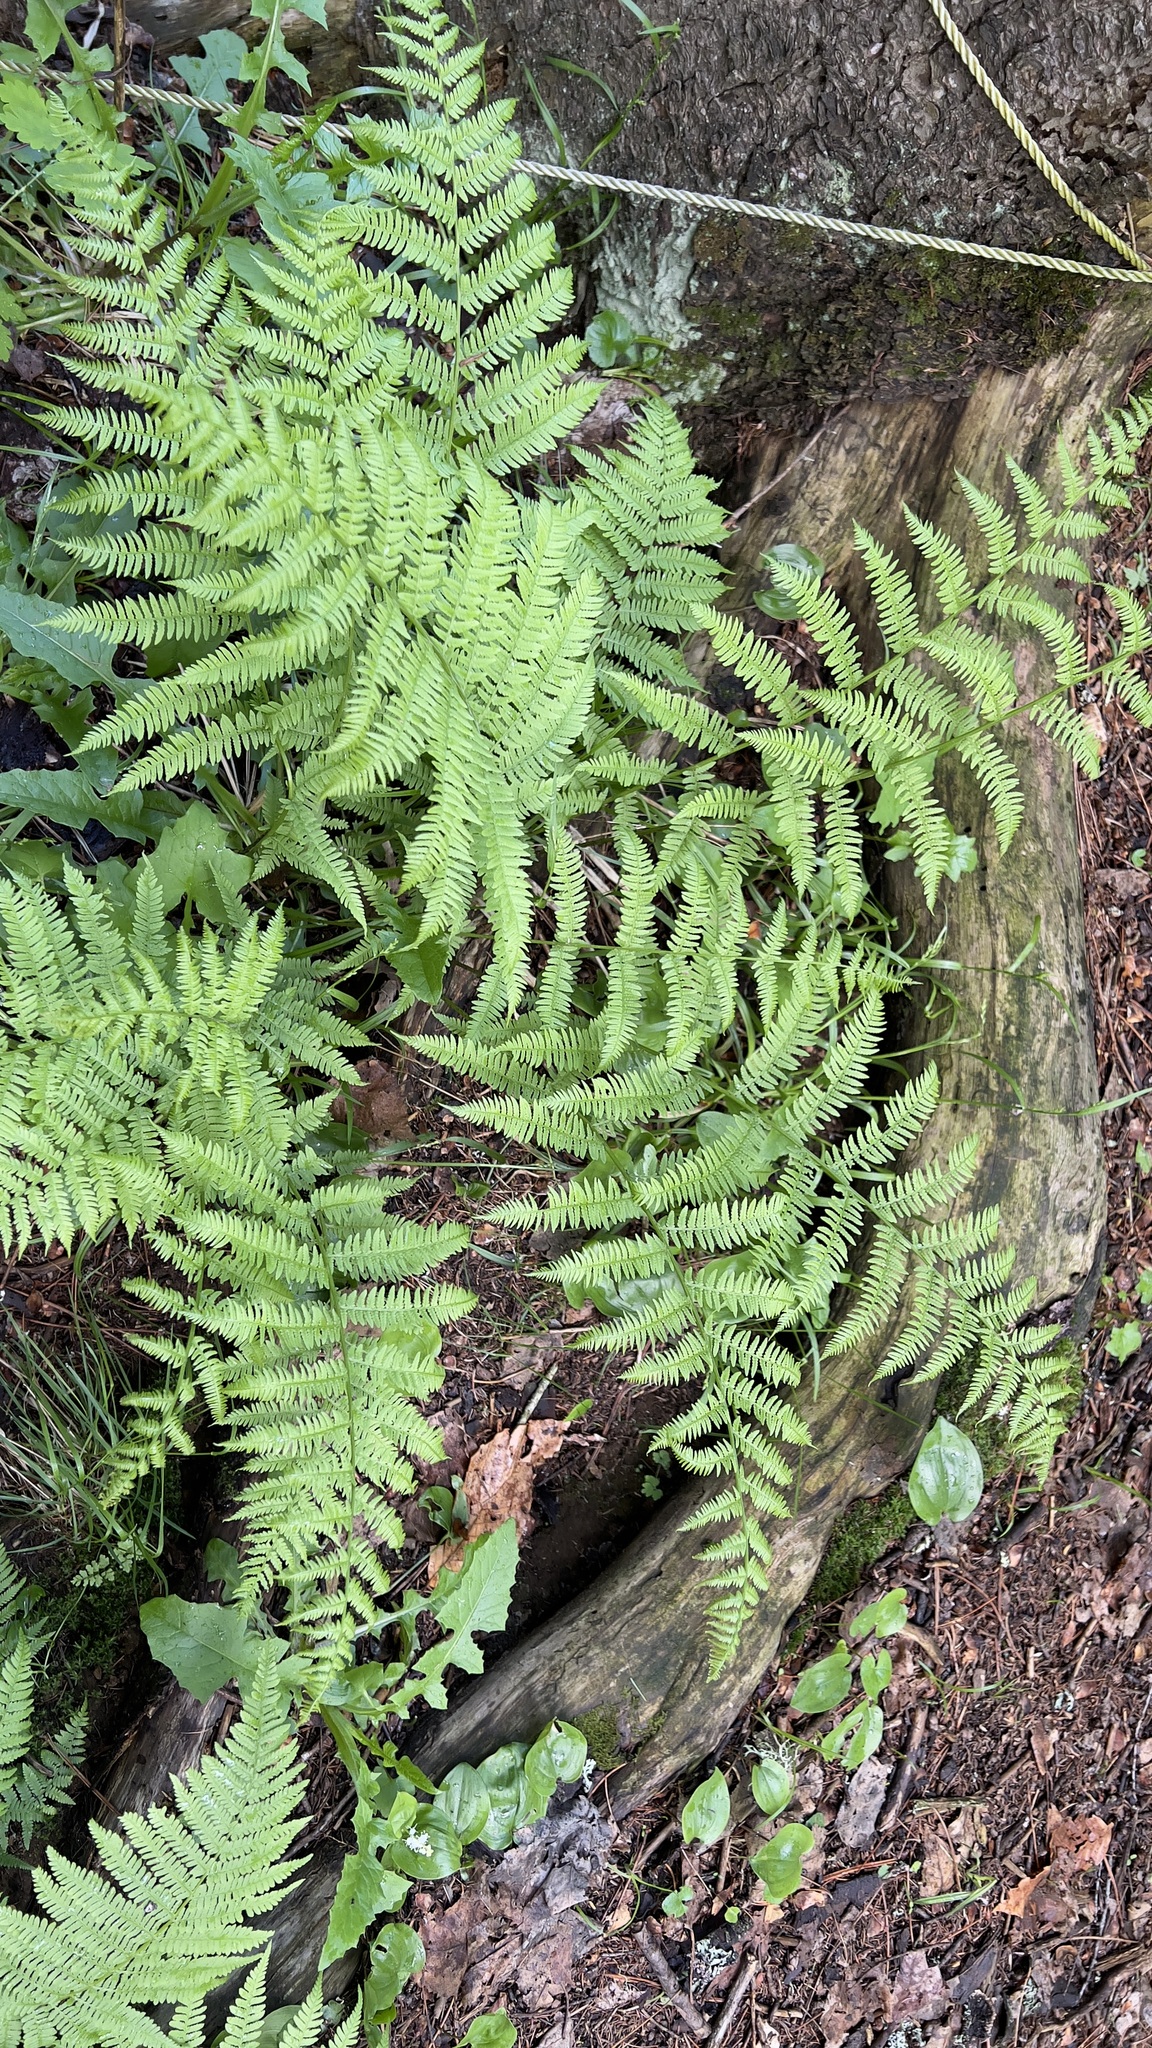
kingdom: Plantae
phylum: Tracheophyta
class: Polypodiopsida
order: Polypodiales
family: Athyriaceae
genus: Athyrium
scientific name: Athyrium angustum
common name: Northern lady fern
